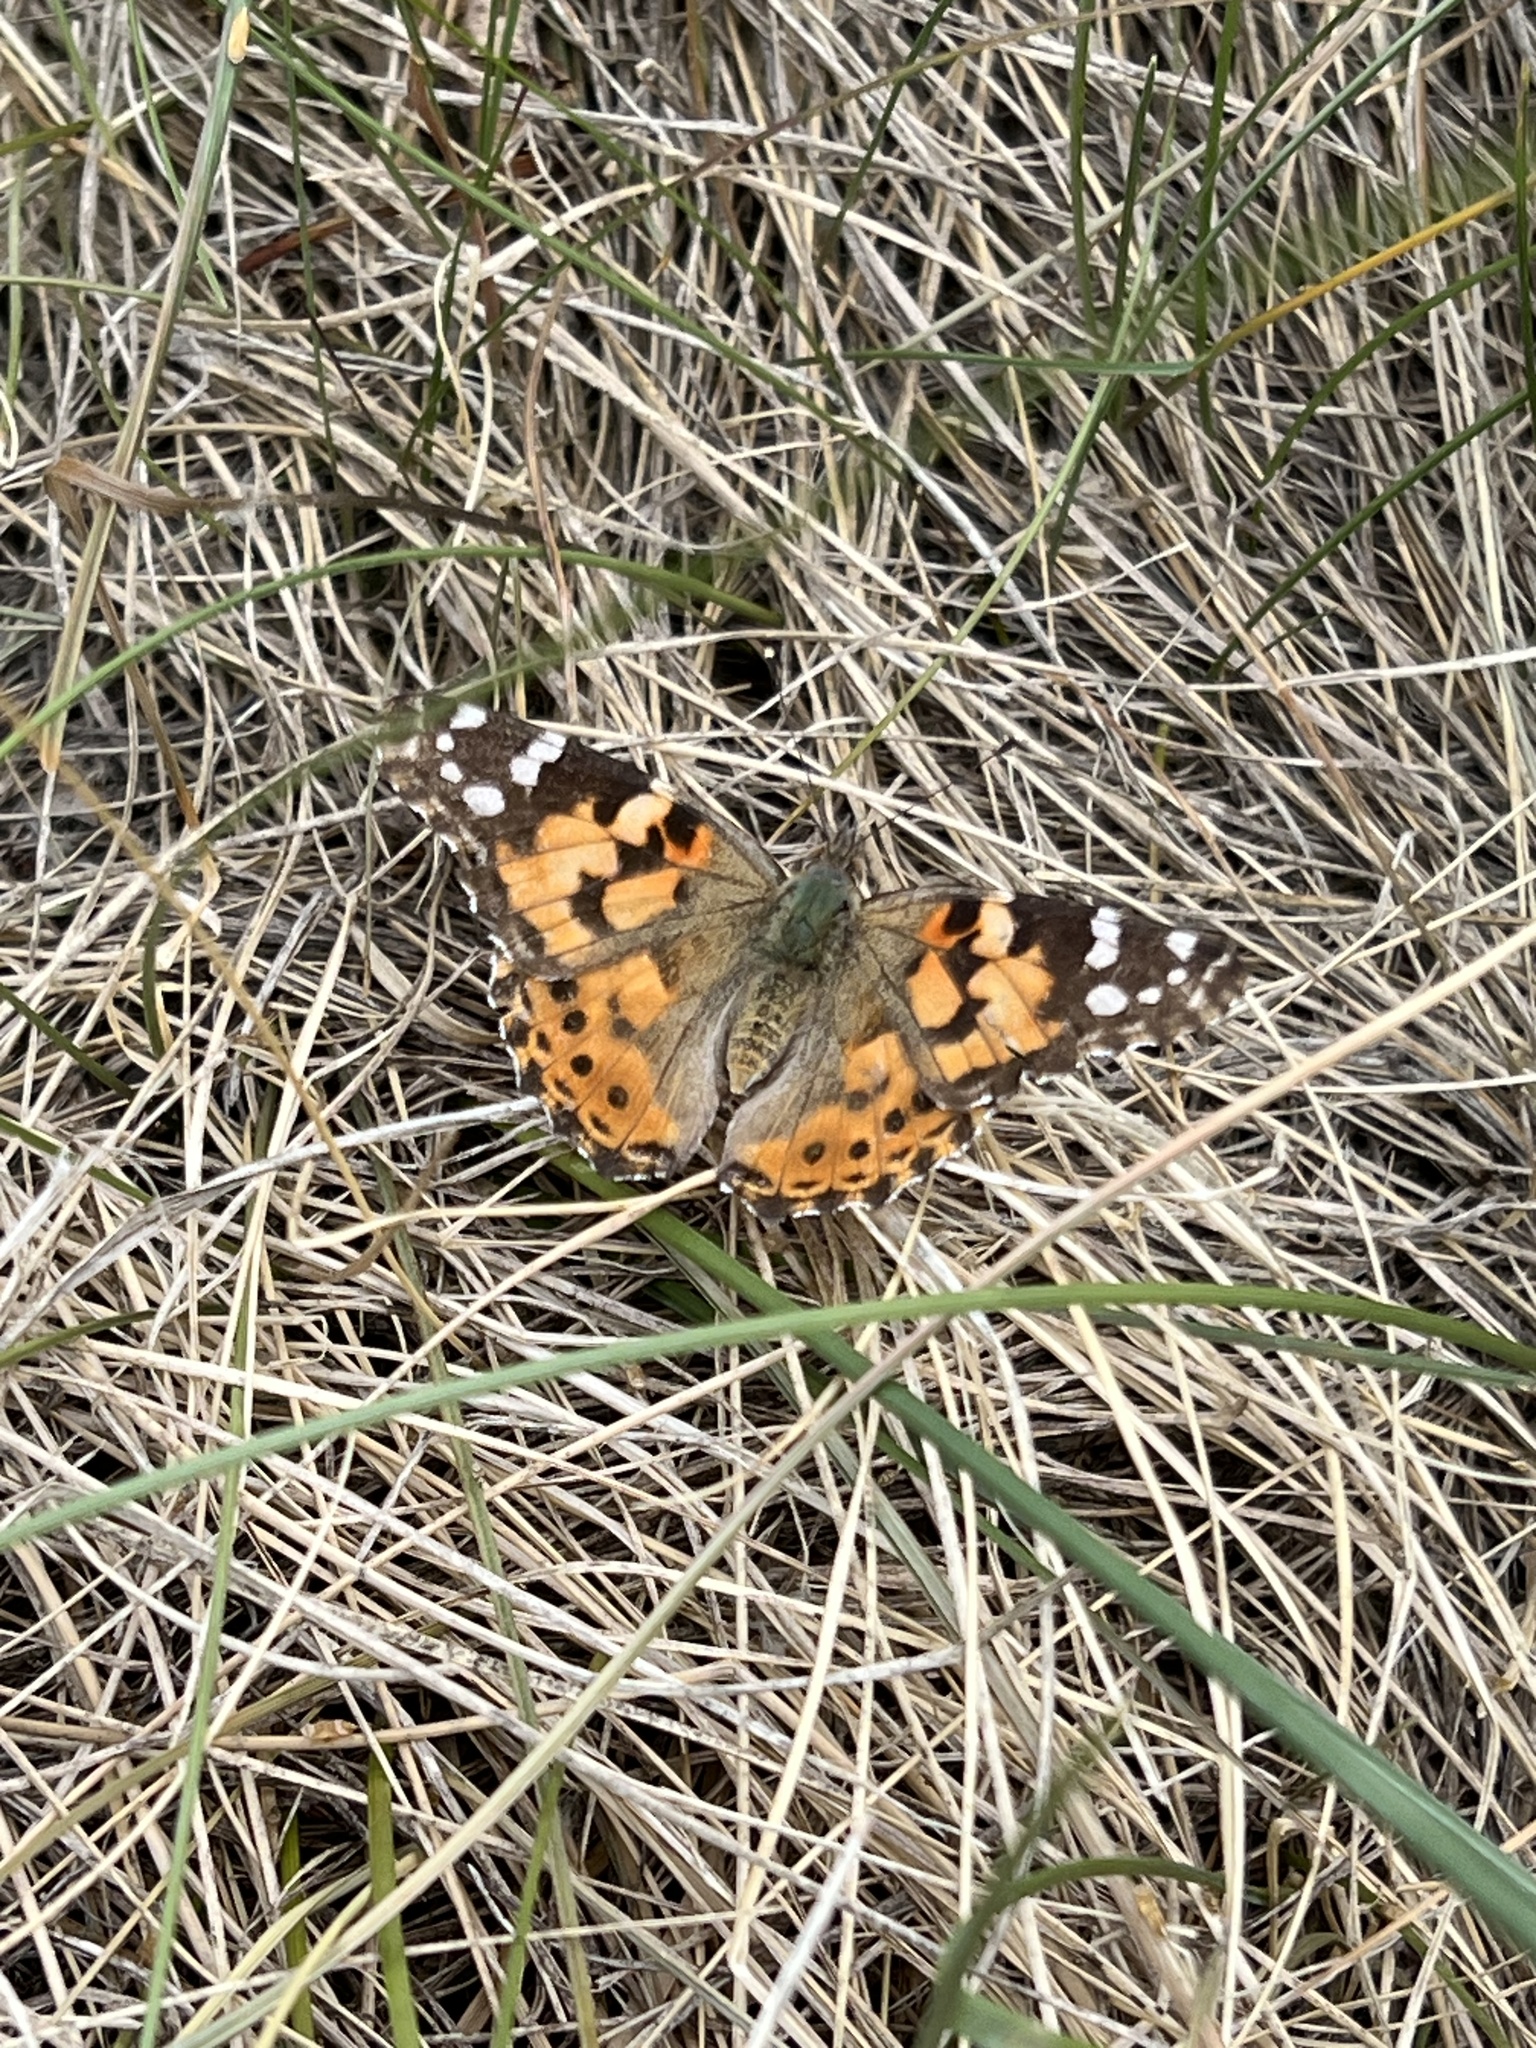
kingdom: Animalia
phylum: Arthropoda
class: Insecta
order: Lepidoptera
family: Nymphalidae
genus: Vanessa
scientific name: Vanessa cardui
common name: Painted lady
